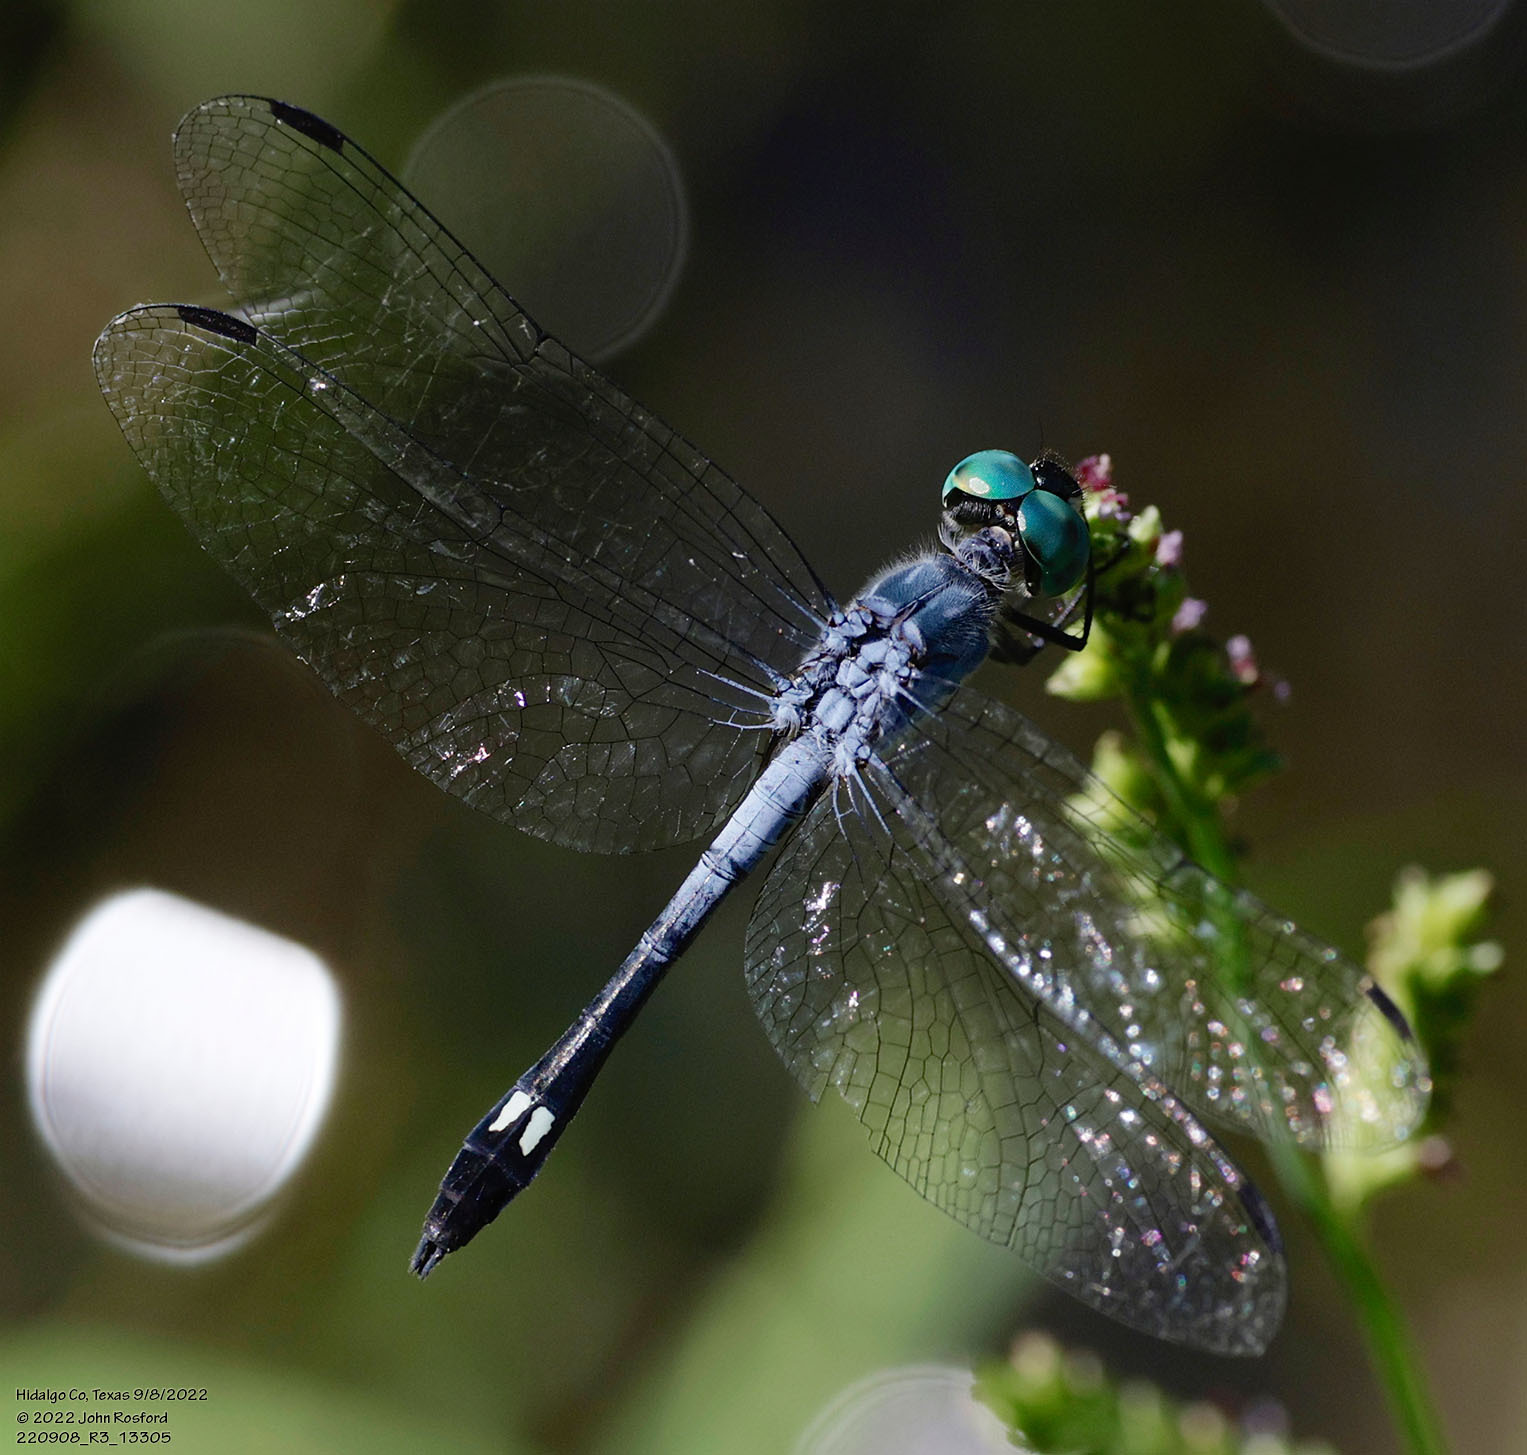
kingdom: Animalia
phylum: Arthropoda
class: Insecta
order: Odonata
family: Libellulidae
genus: Micrathyria
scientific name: Micrathyria aequalis
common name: Spot-tailed dasher
